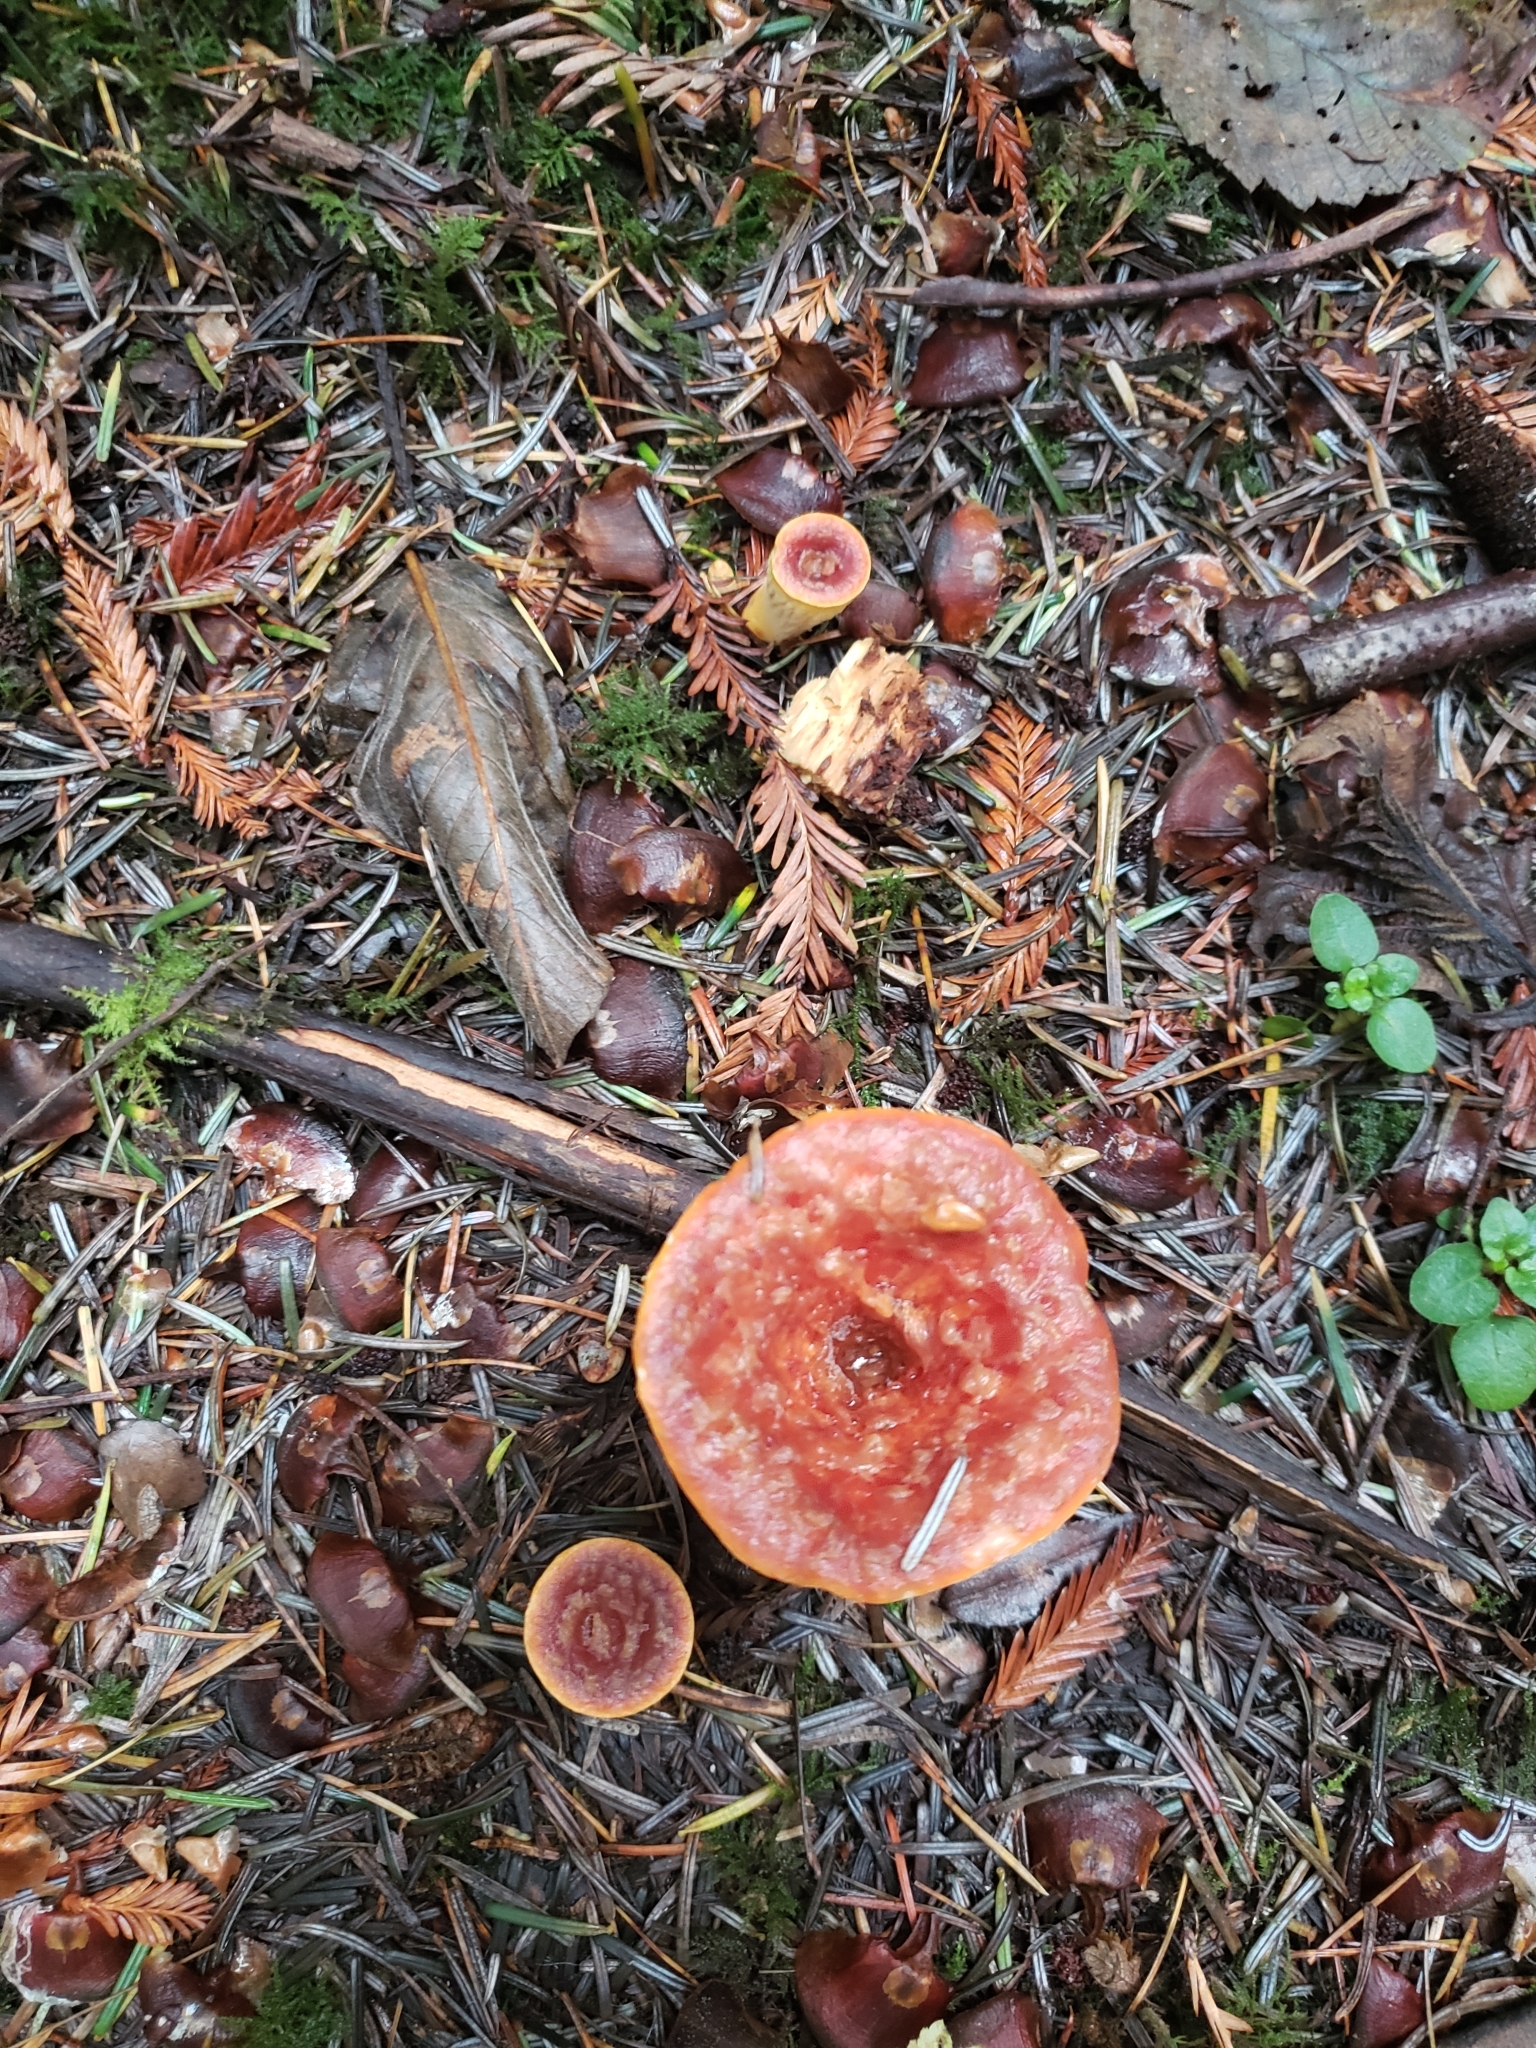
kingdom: Fungi
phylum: Basidiomycota
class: Agaricomycetes
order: Gomphales
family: Gomphaceae
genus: Turbinellus
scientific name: Turbinellus floccosus
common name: Scaly chanterelle
